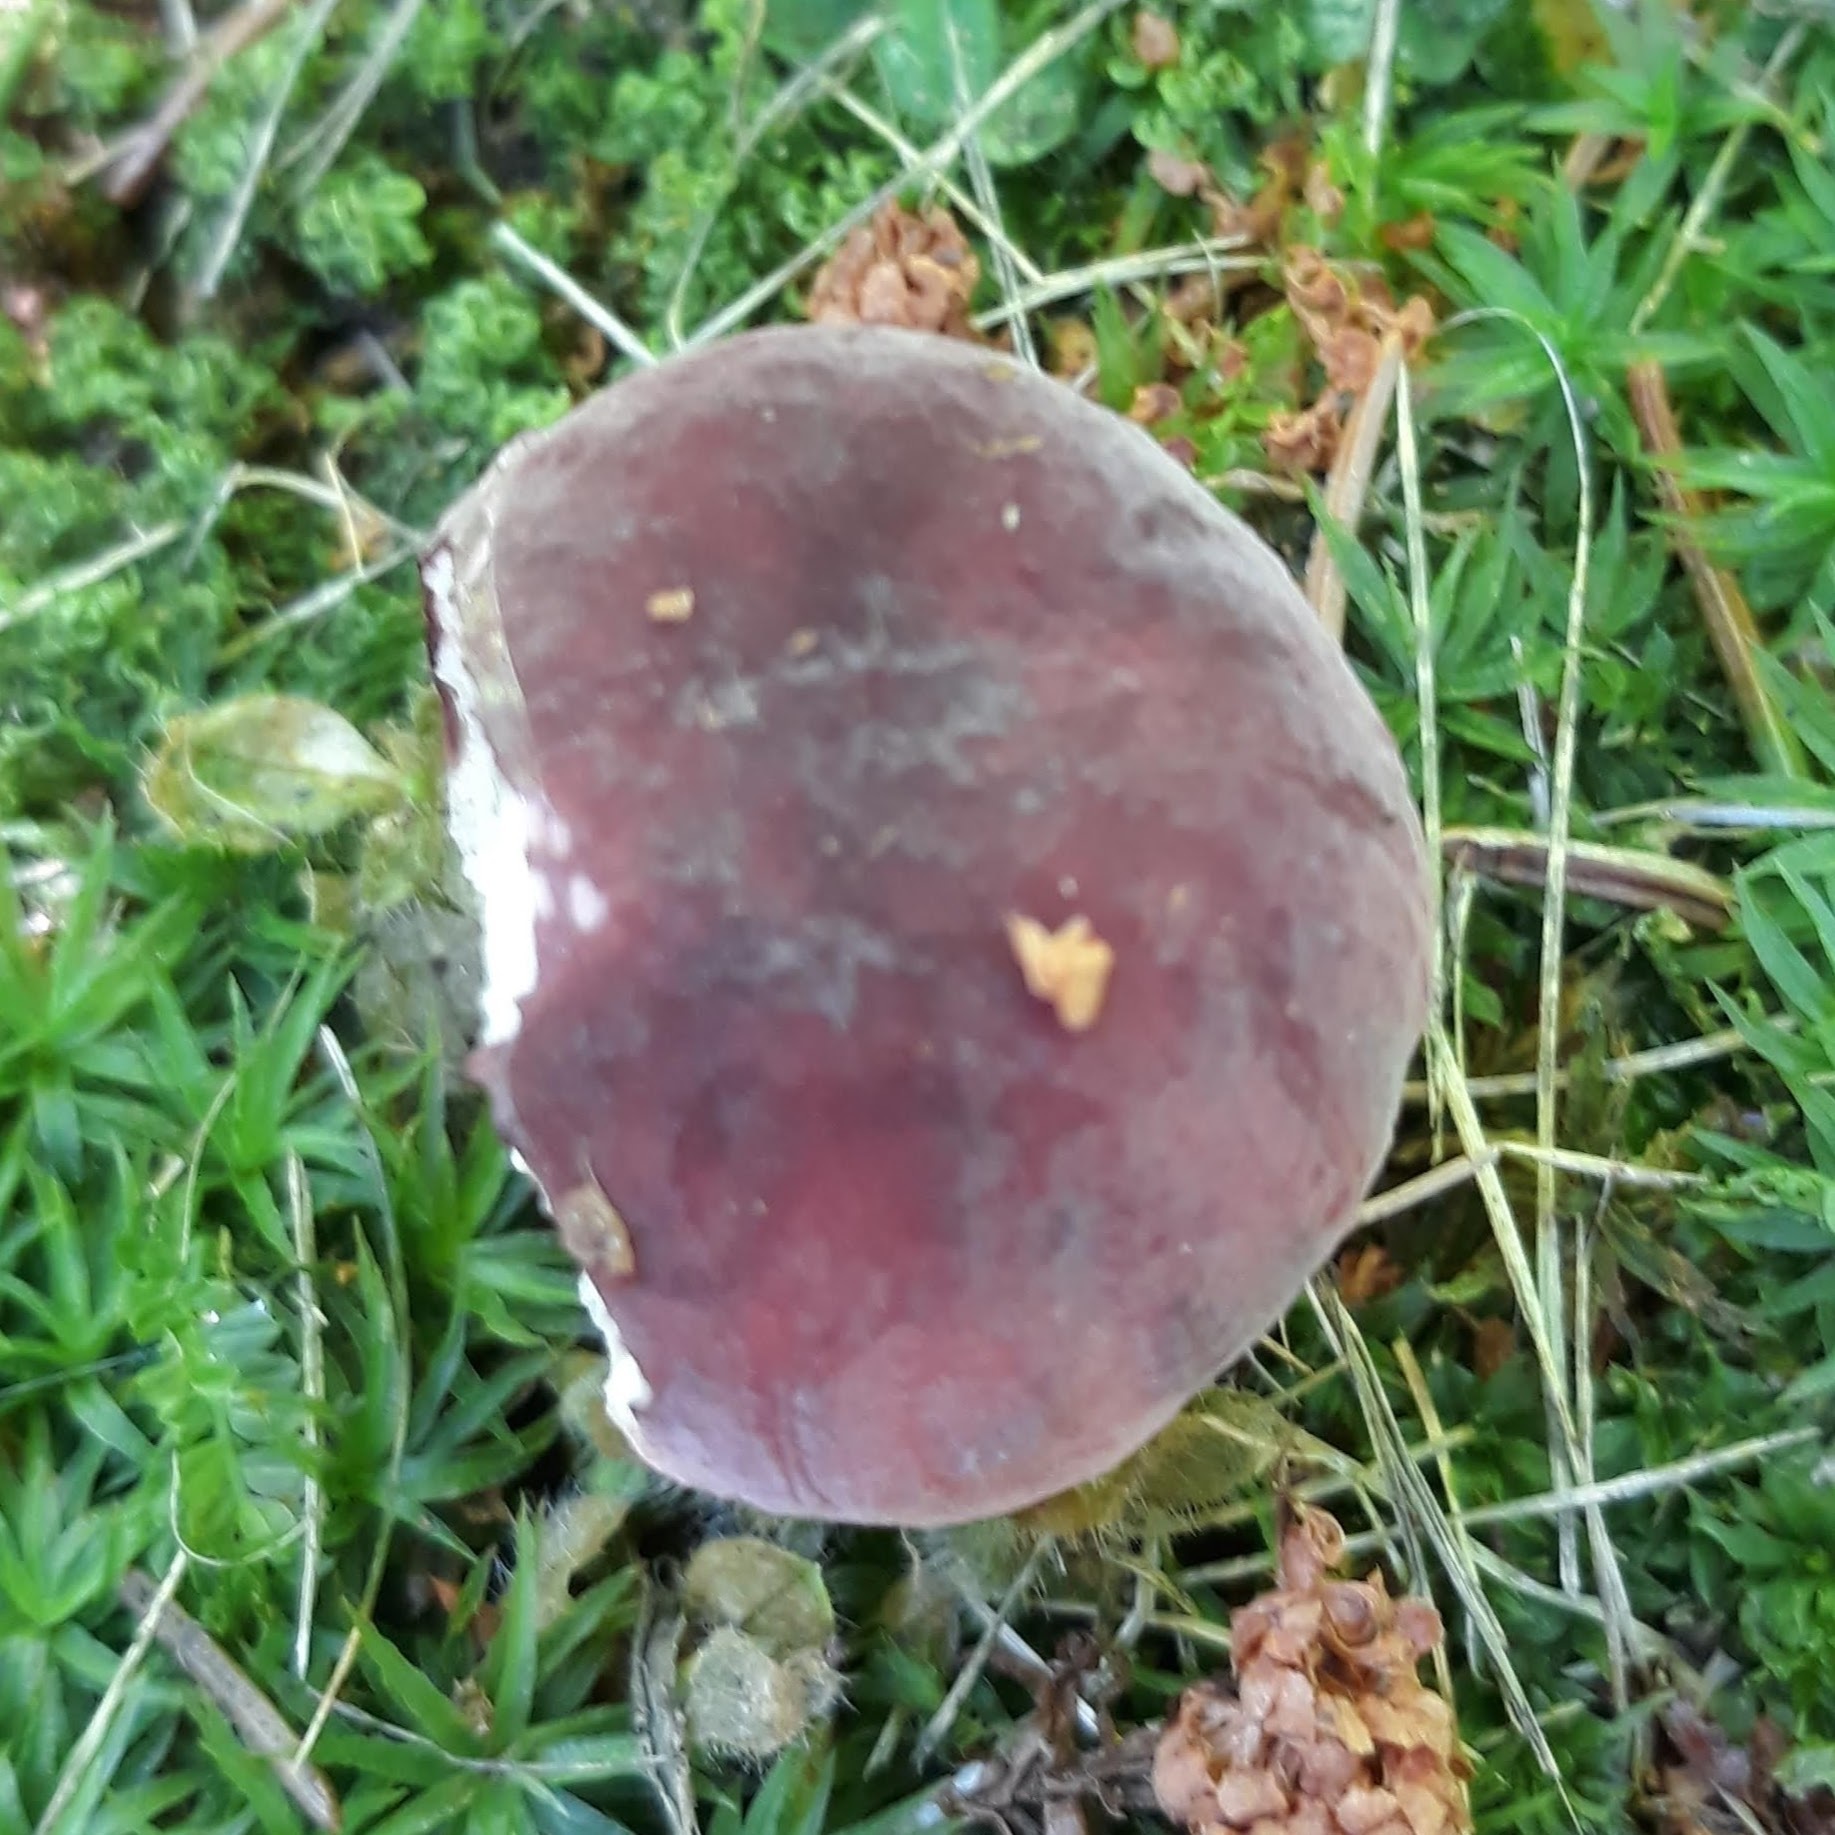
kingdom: Fungi
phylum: Basidiomycota
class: Agaricomycetes
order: Russulales
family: Russulaceae
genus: Russula
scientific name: Russula
